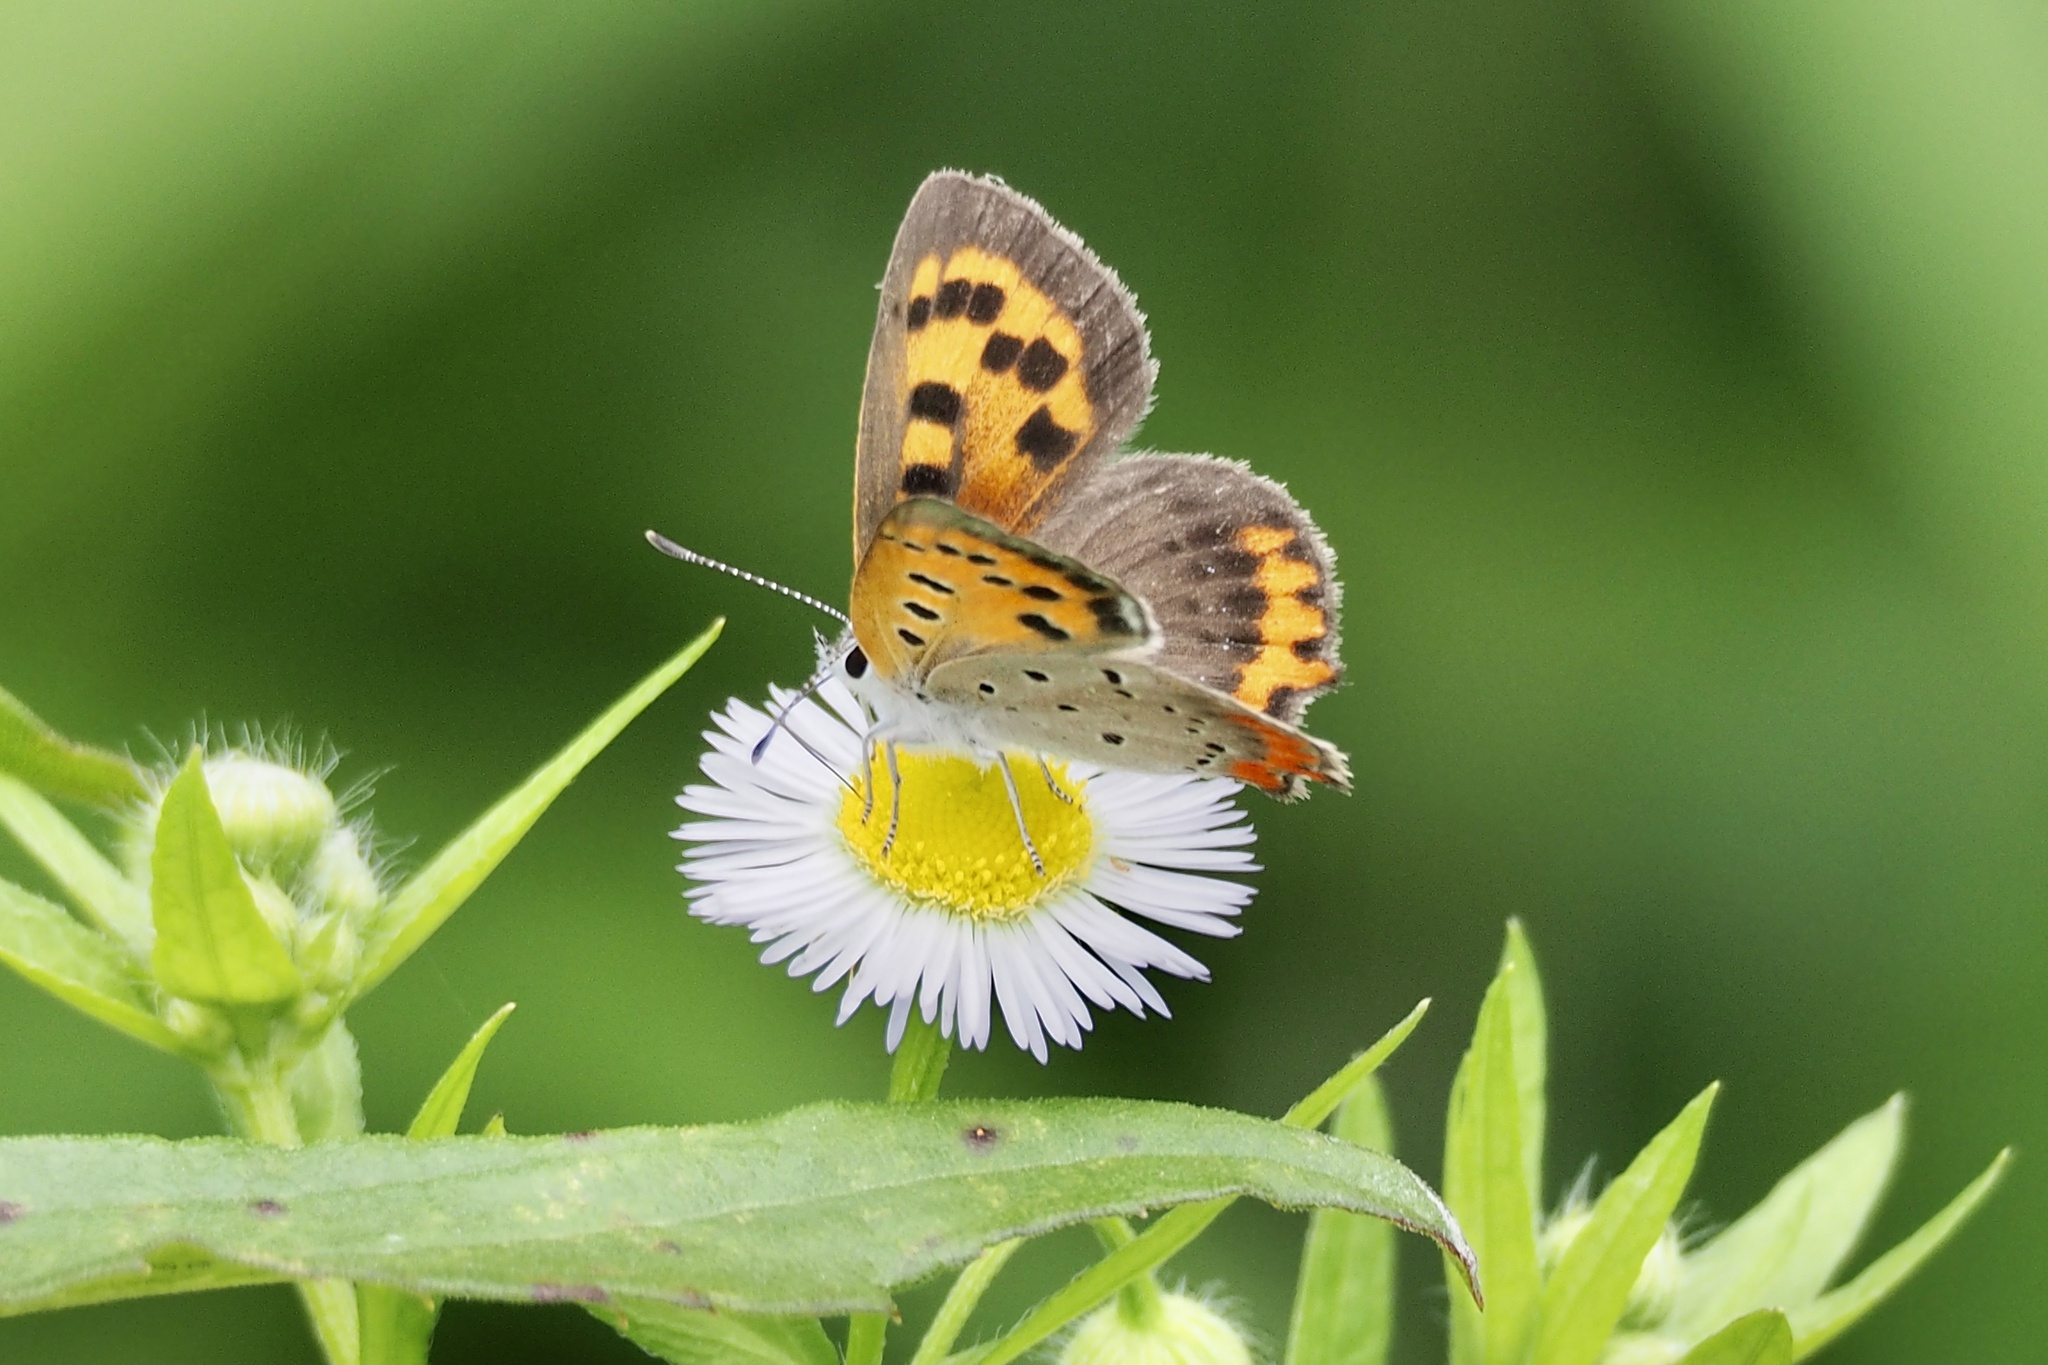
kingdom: Animalia
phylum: Arthropoda
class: Insecta
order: Lepidoptera
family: Lycaenidae
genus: Lycaena
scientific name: Lycaena phlaeas
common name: Small copper
